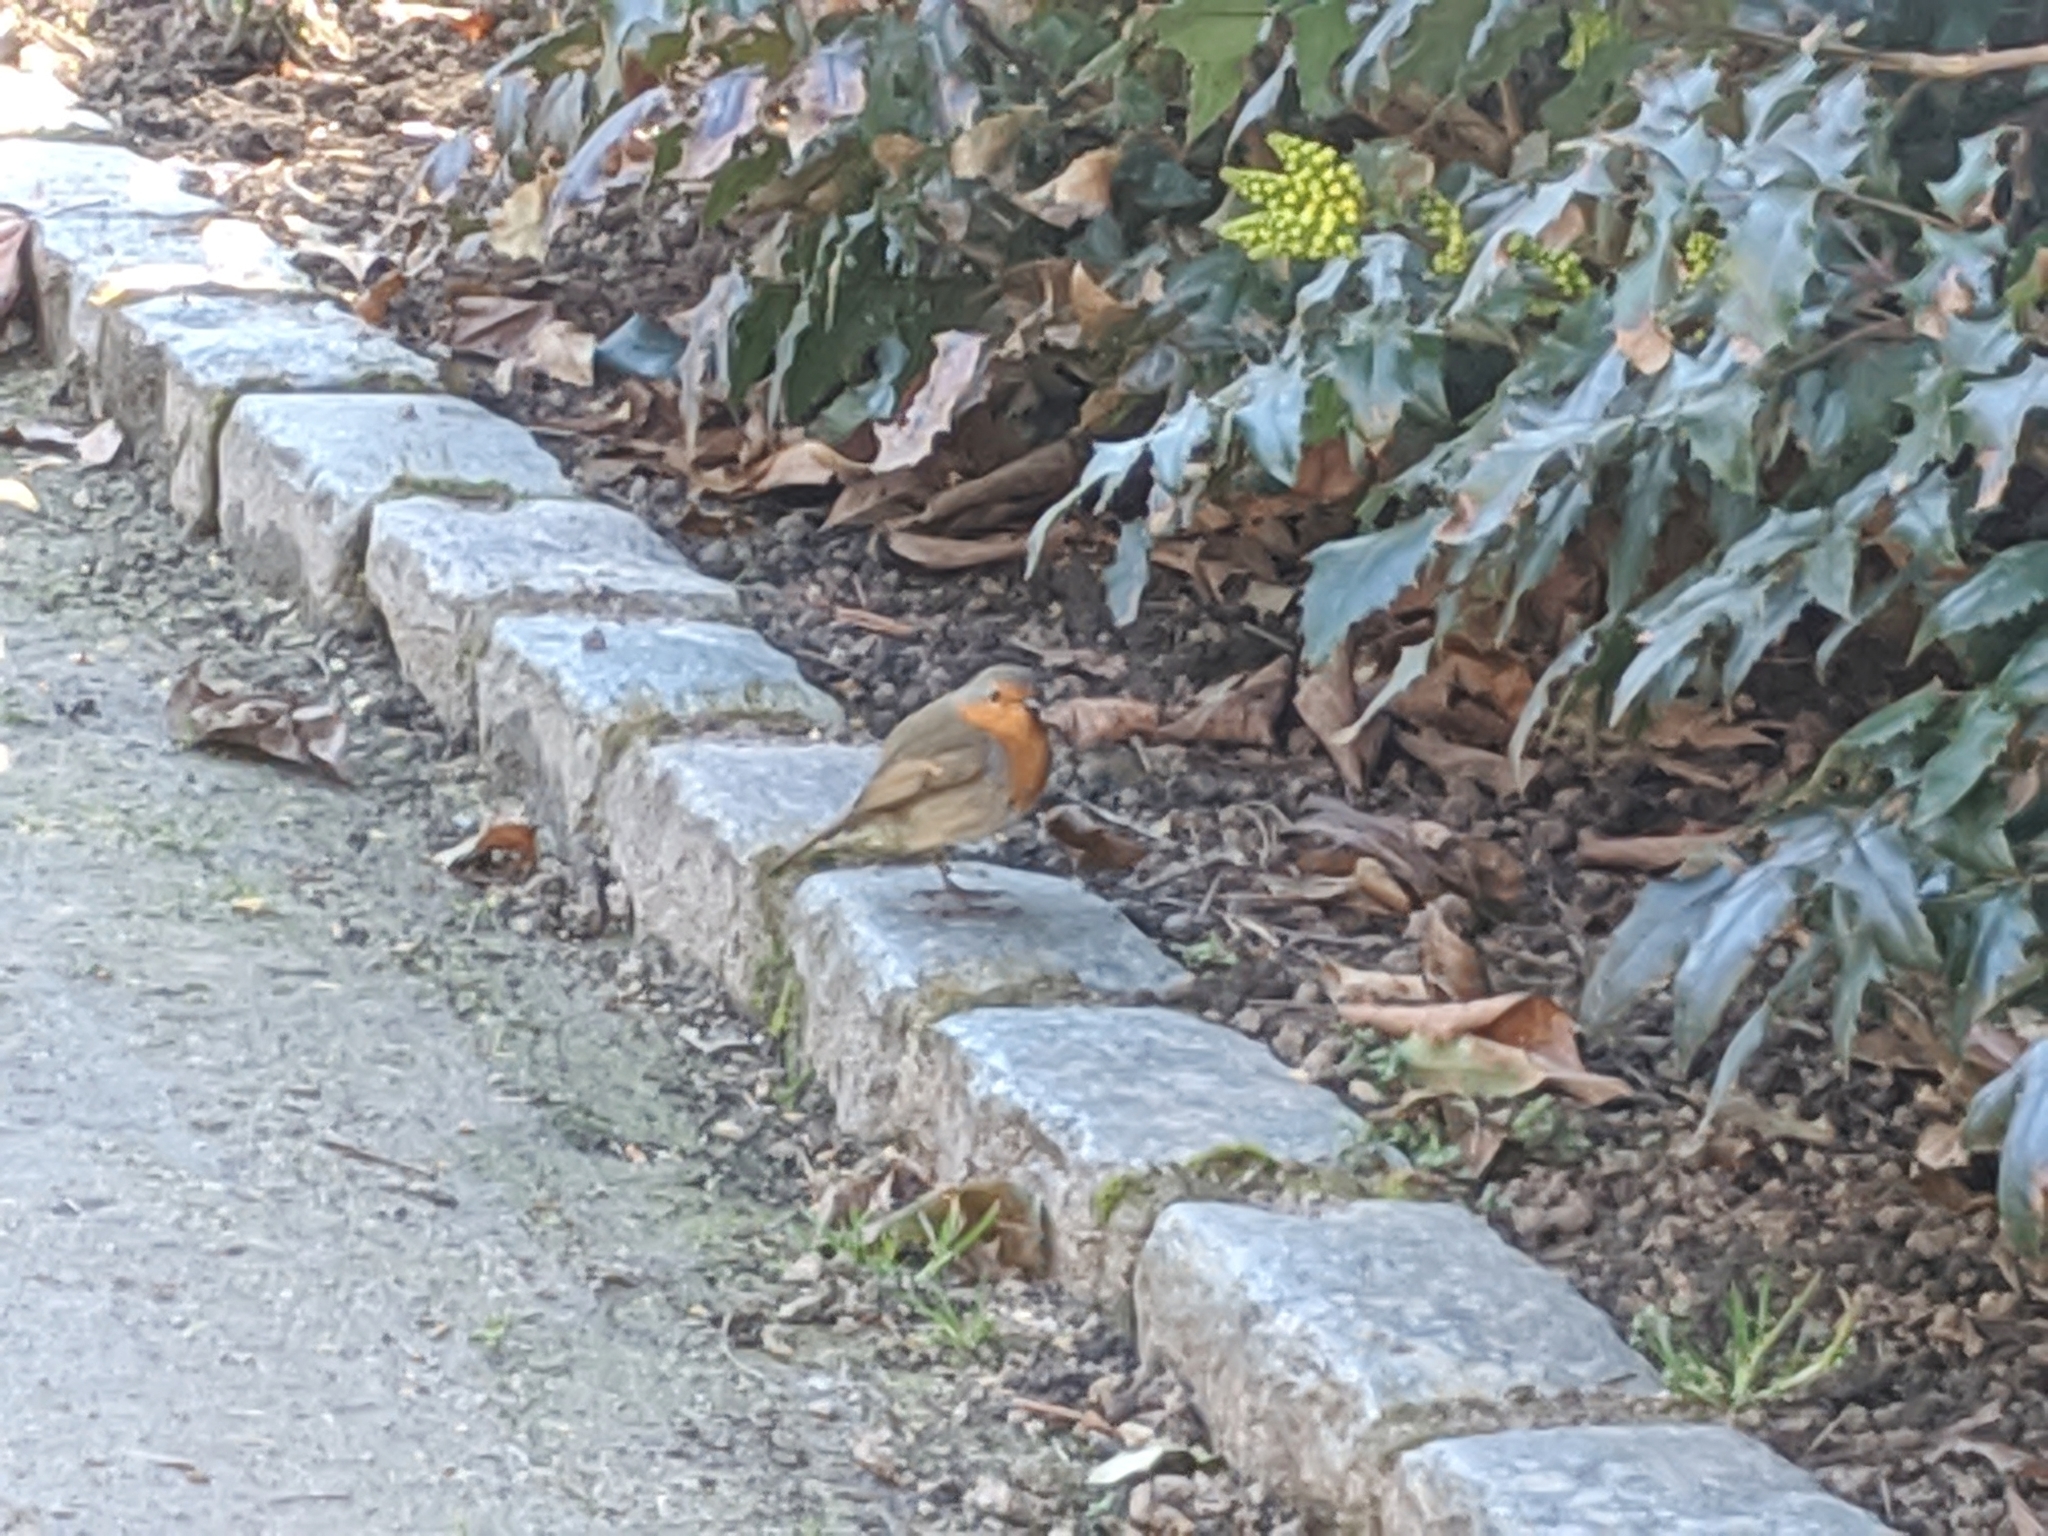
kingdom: Animalia
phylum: Chordata
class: Aves
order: Passeriformes
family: Muscicapidae
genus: Erithacus
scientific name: Erithacus rubecula
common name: European robin
